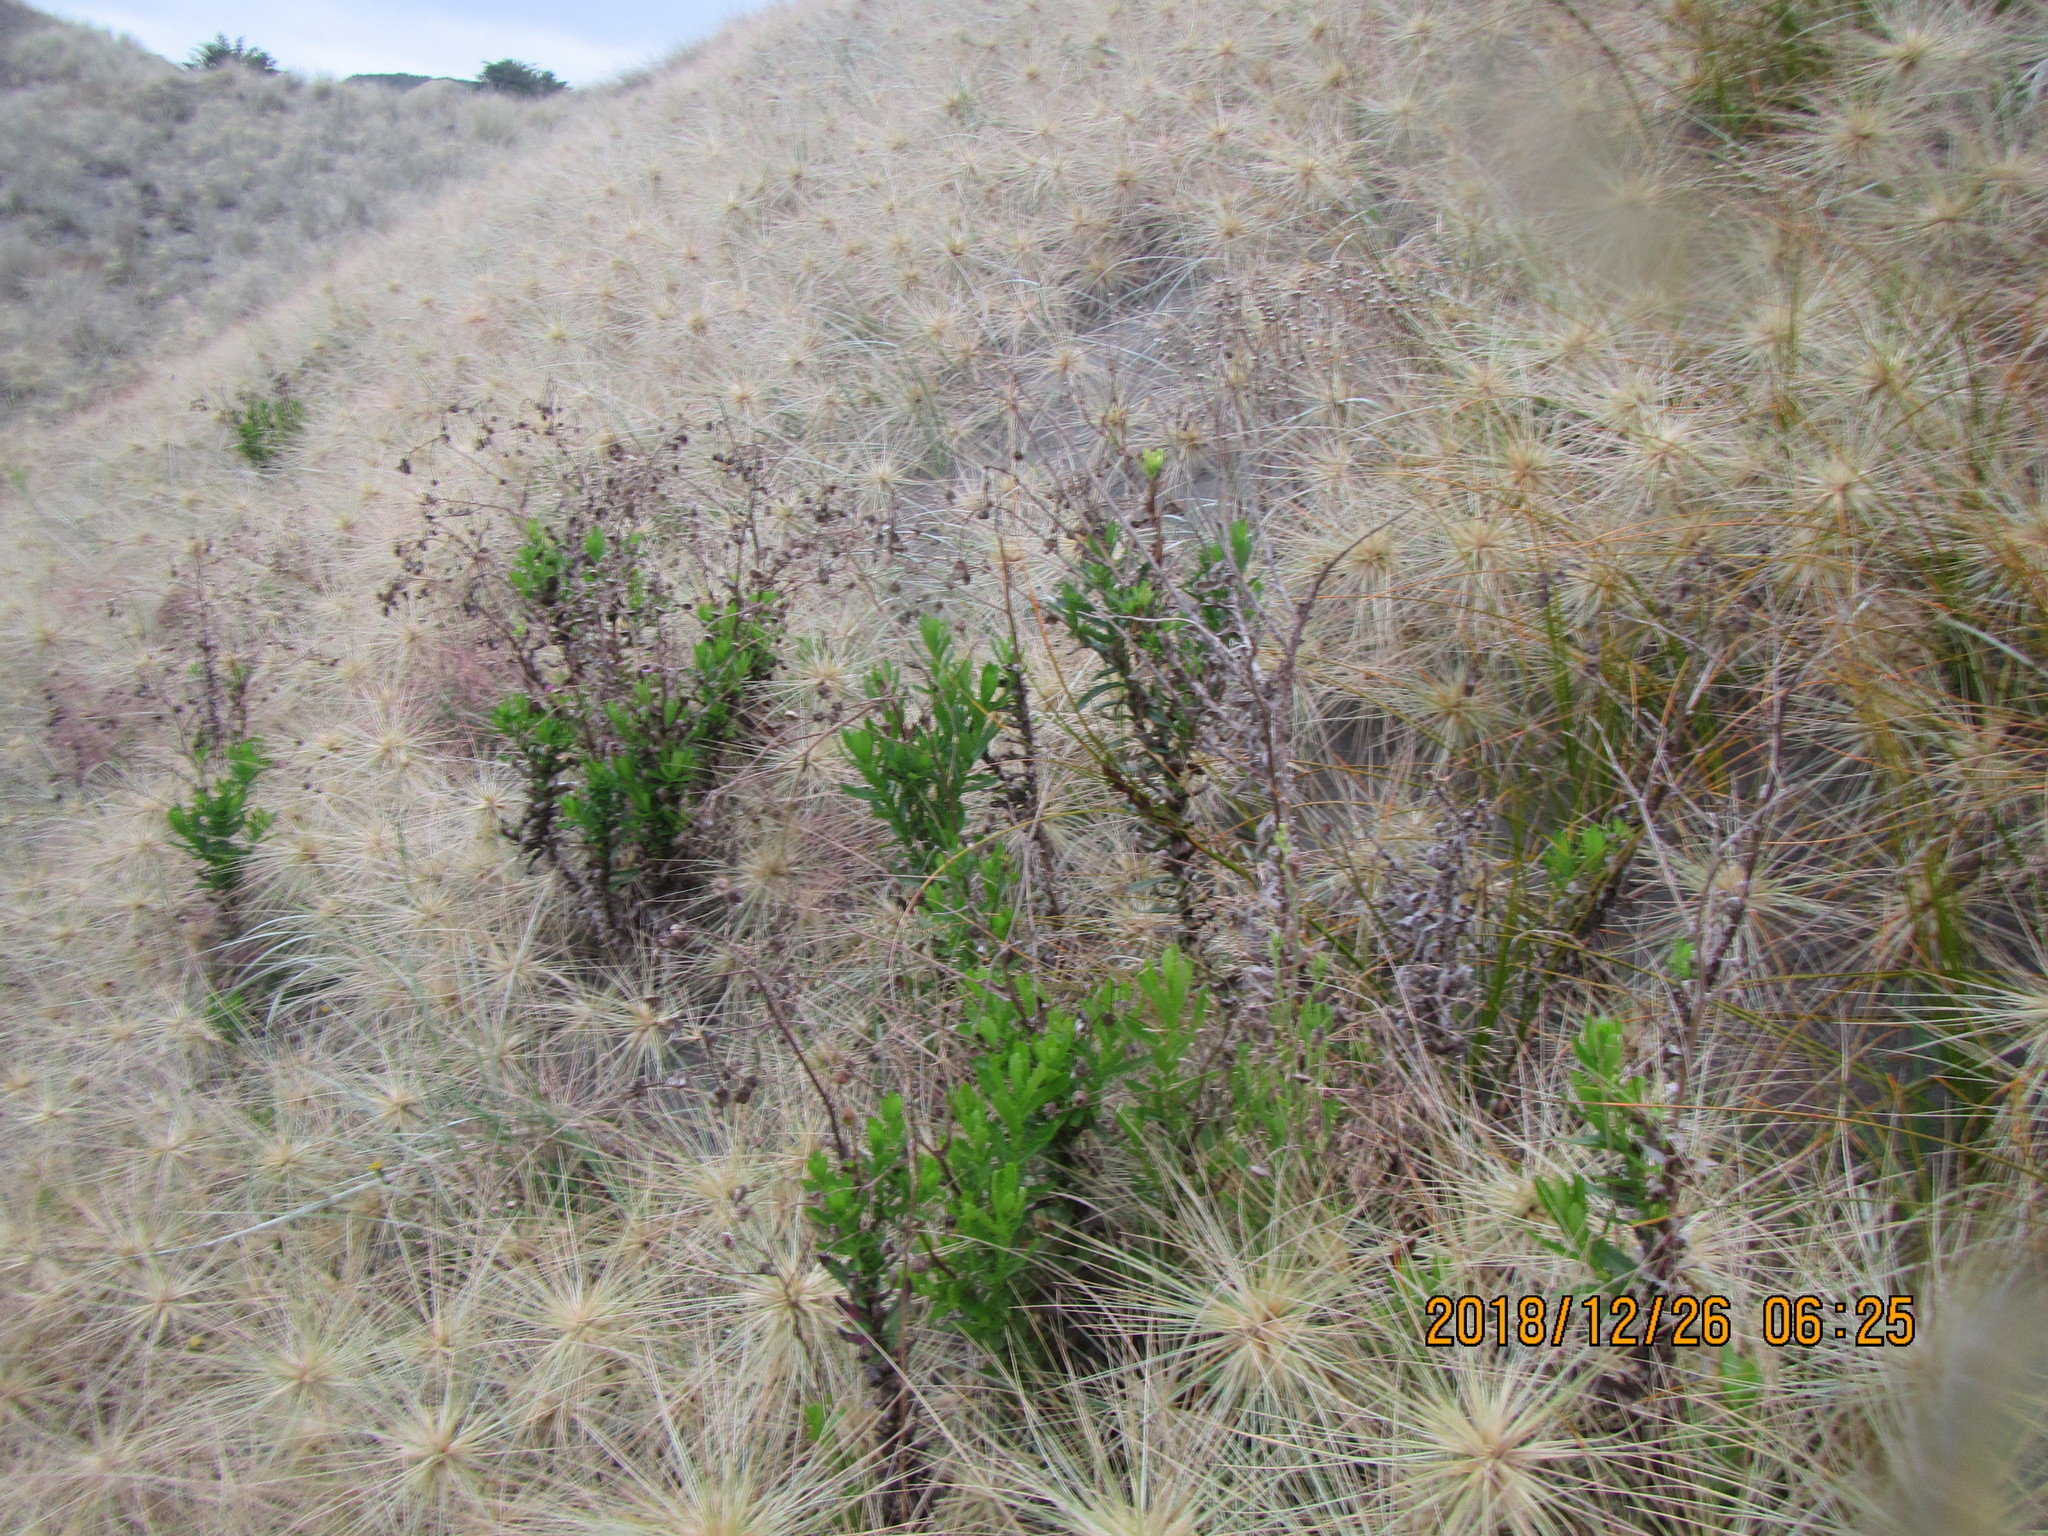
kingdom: Plantae
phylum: Tracheophyta
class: Magnoliopsida
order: Asterales
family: Asteraceae
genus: Senecio
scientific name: Senecio glastifolius
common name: Woad-leaved ragwort
